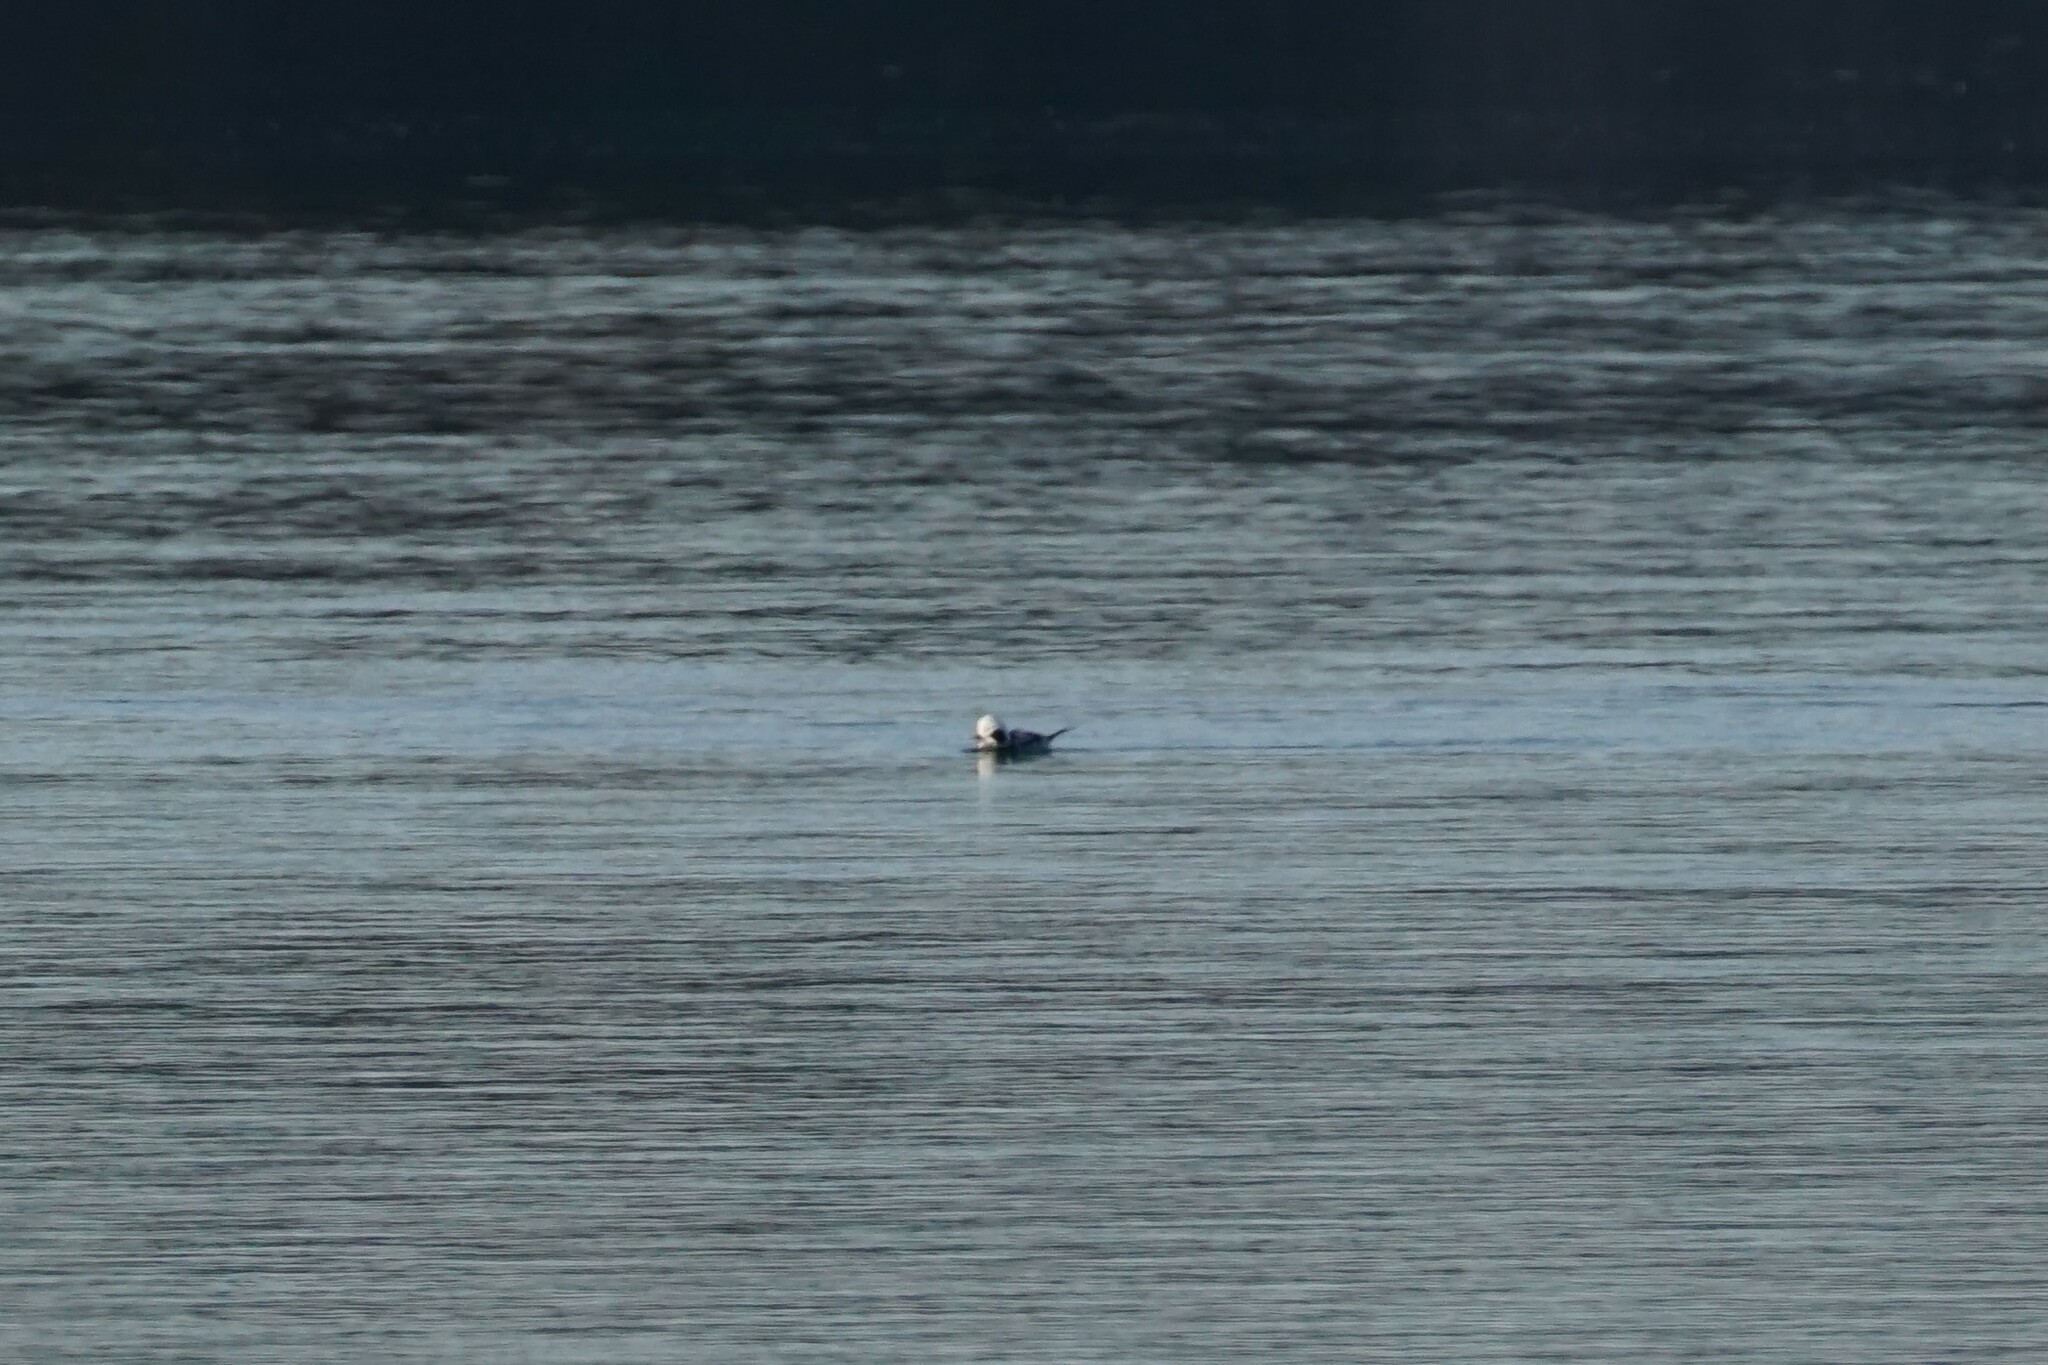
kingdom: Animalia
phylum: Chordata
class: Aves
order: Anseriformes
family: Anatidae
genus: Clangula
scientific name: Clangula hyemalis
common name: Long-tailed duck
